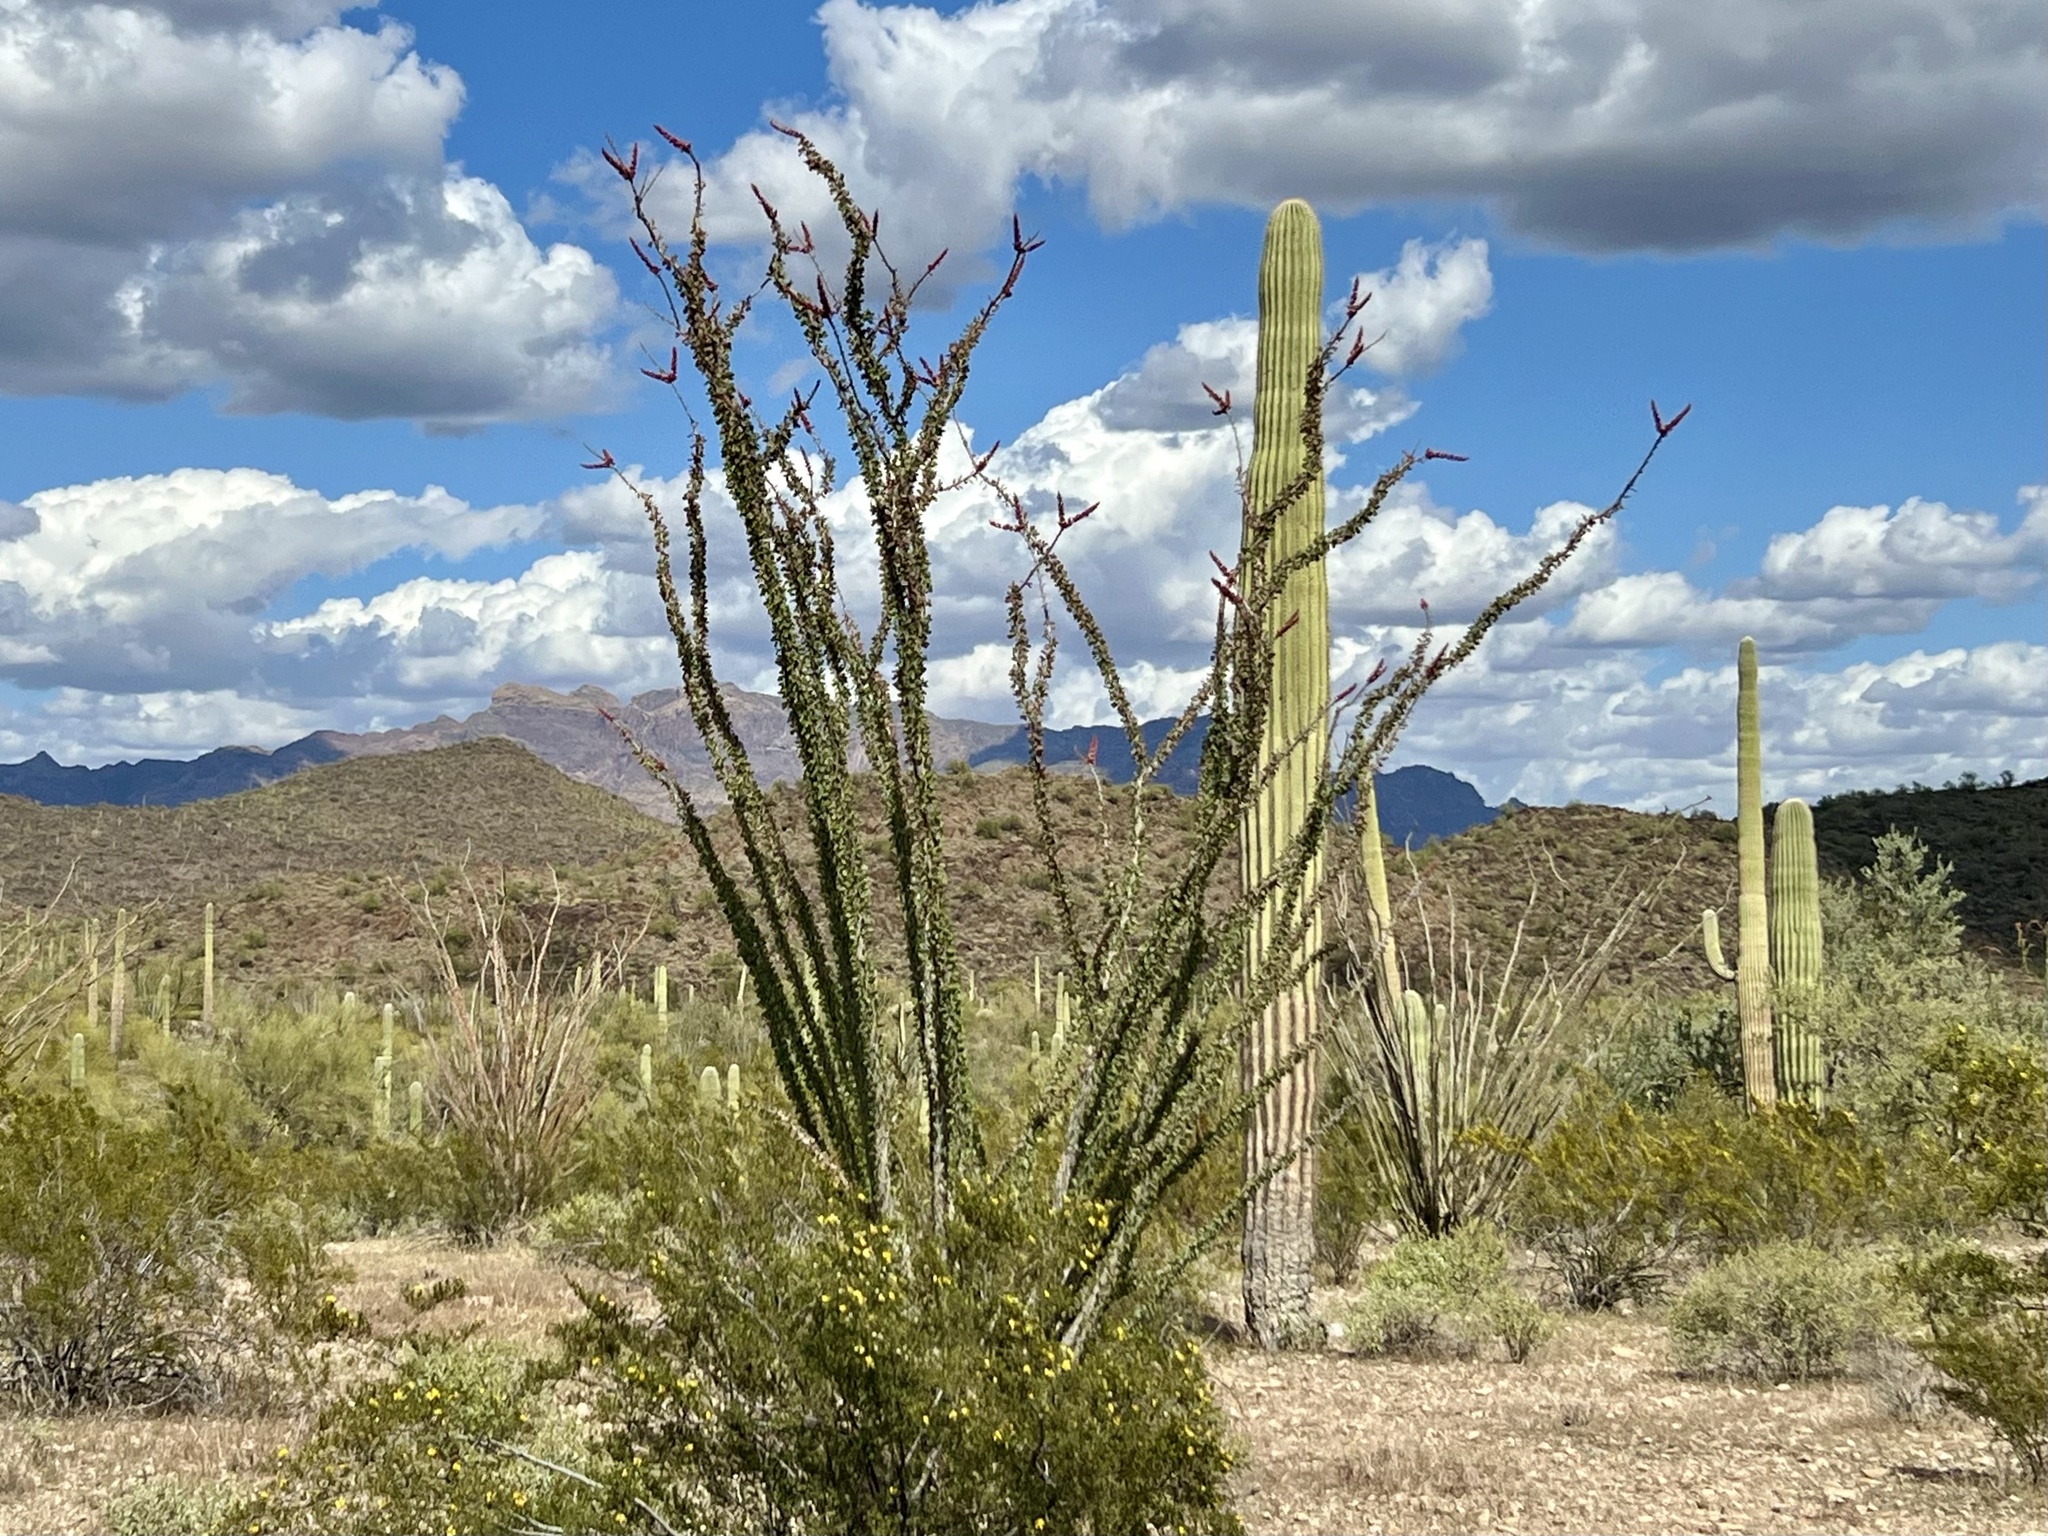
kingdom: Plantae
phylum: Tracheophyta
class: Magnoliopsida
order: Ericales
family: Fouquieriaceae
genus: Fouquieria
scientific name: Fouquieria splendens
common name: Vine-cactus
